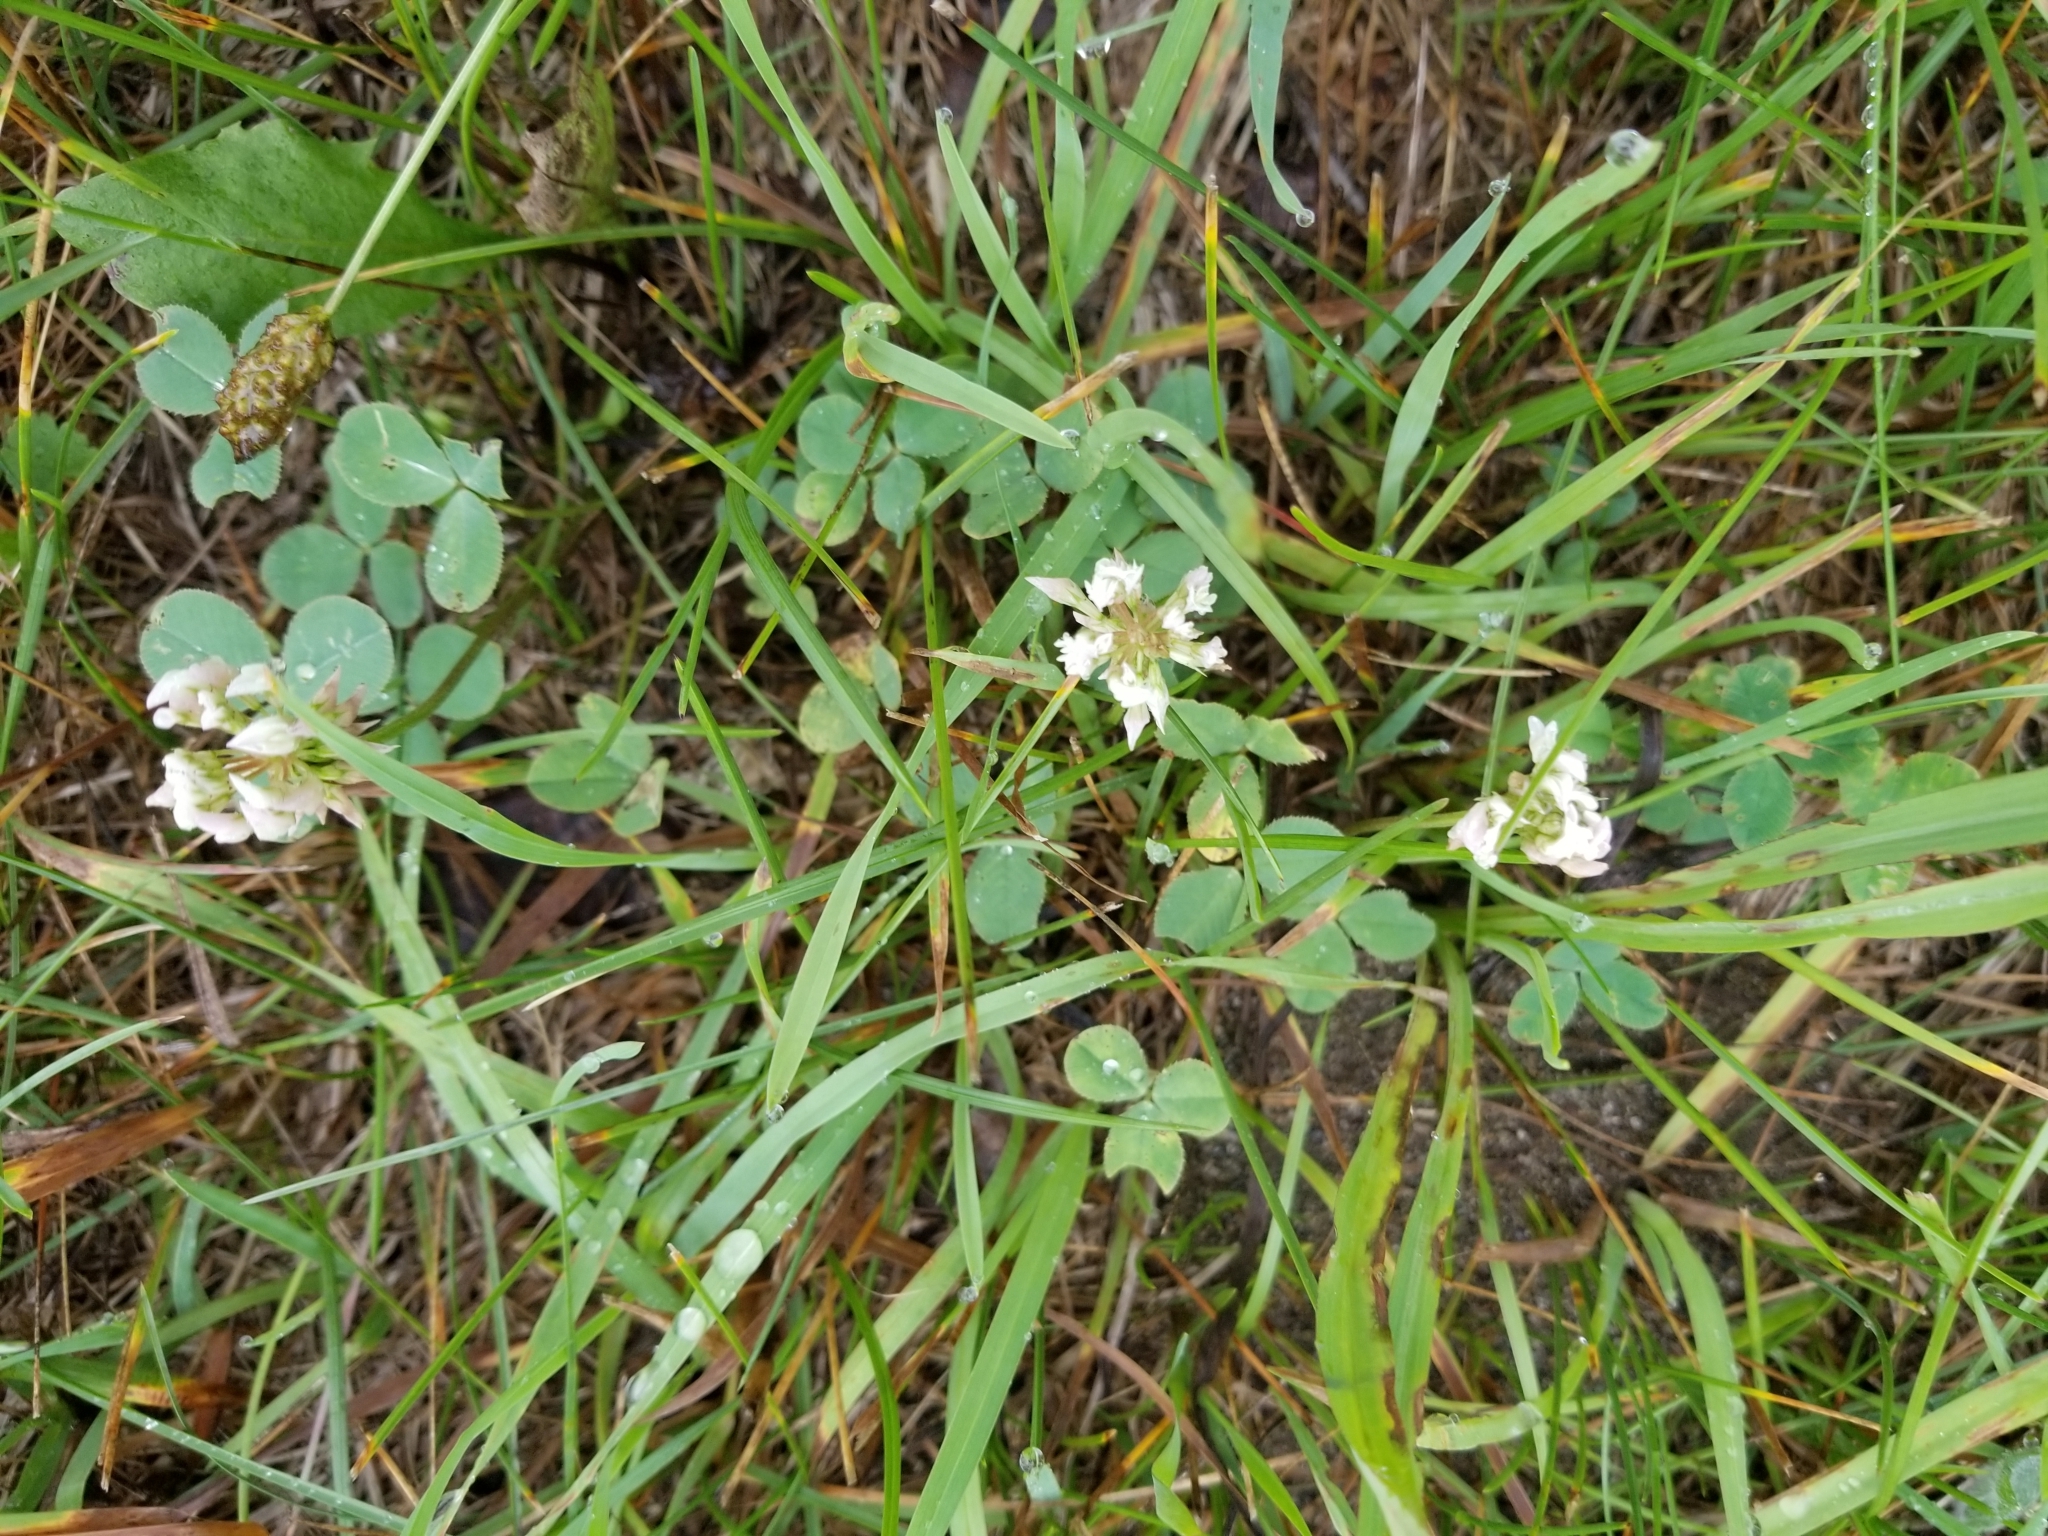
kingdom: Plantae
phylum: Tracheophyta
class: Magnoliopsida
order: Fabales
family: Fabaceae
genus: Trifolium
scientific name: Trifolium repens
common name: White clover
